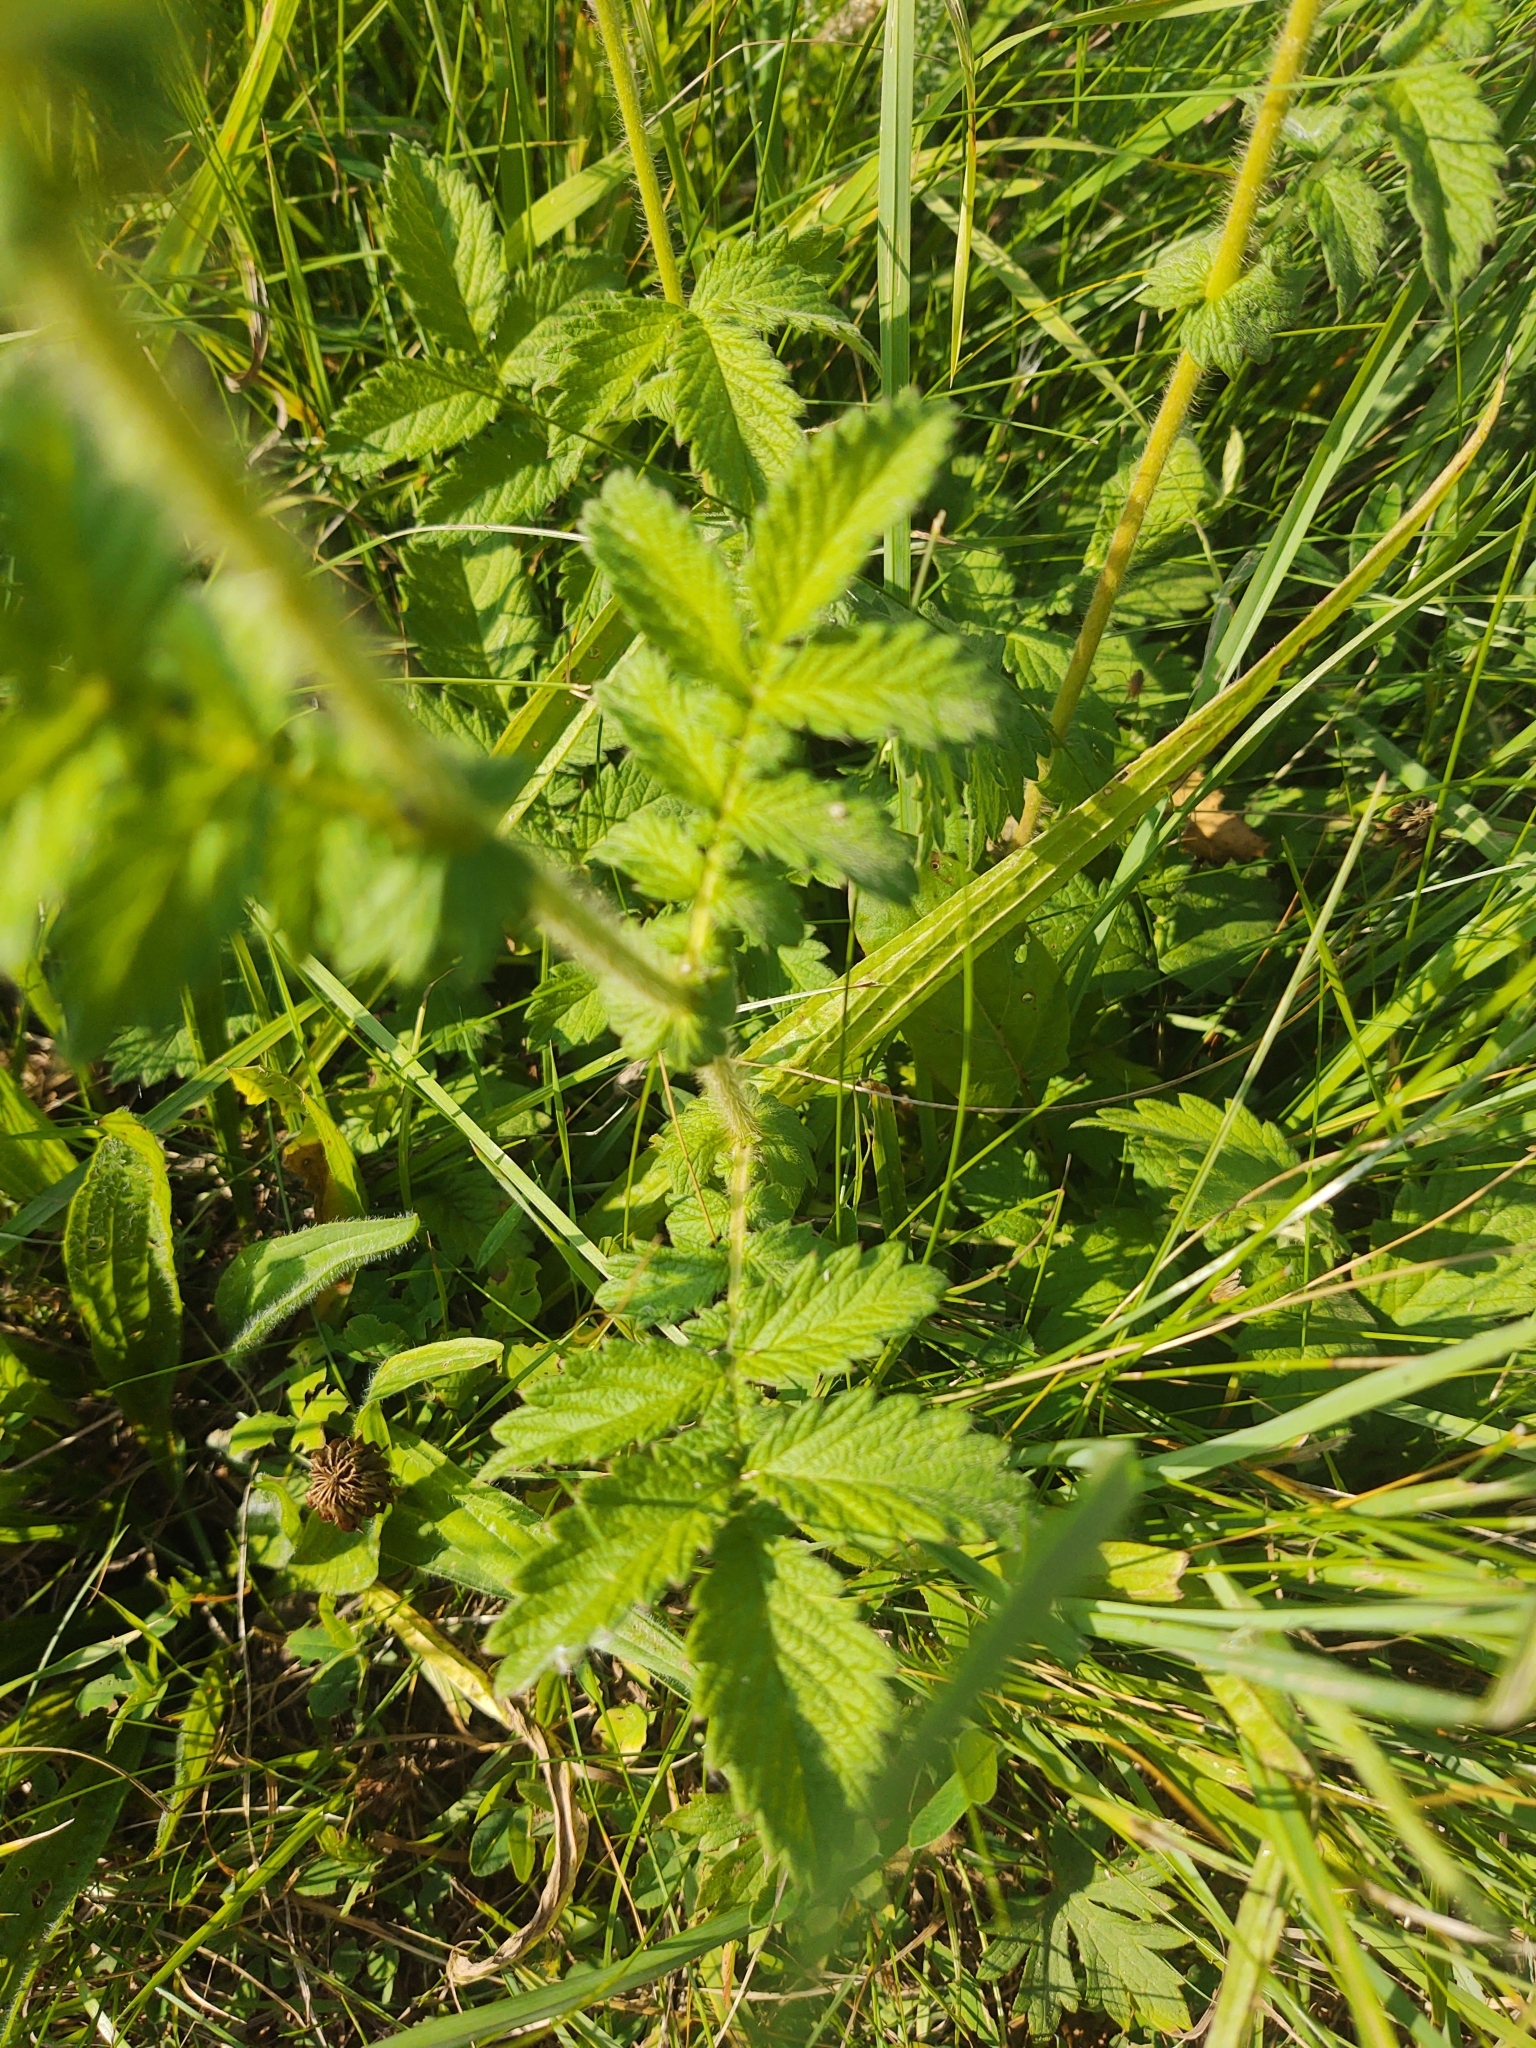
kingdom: Plantae
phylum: Tracheophyta
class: Magnoliopsida
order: Rosales
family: Rosaceae
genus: Agrimonia
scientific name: Agrimonia eupatoria
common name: Agrimony
